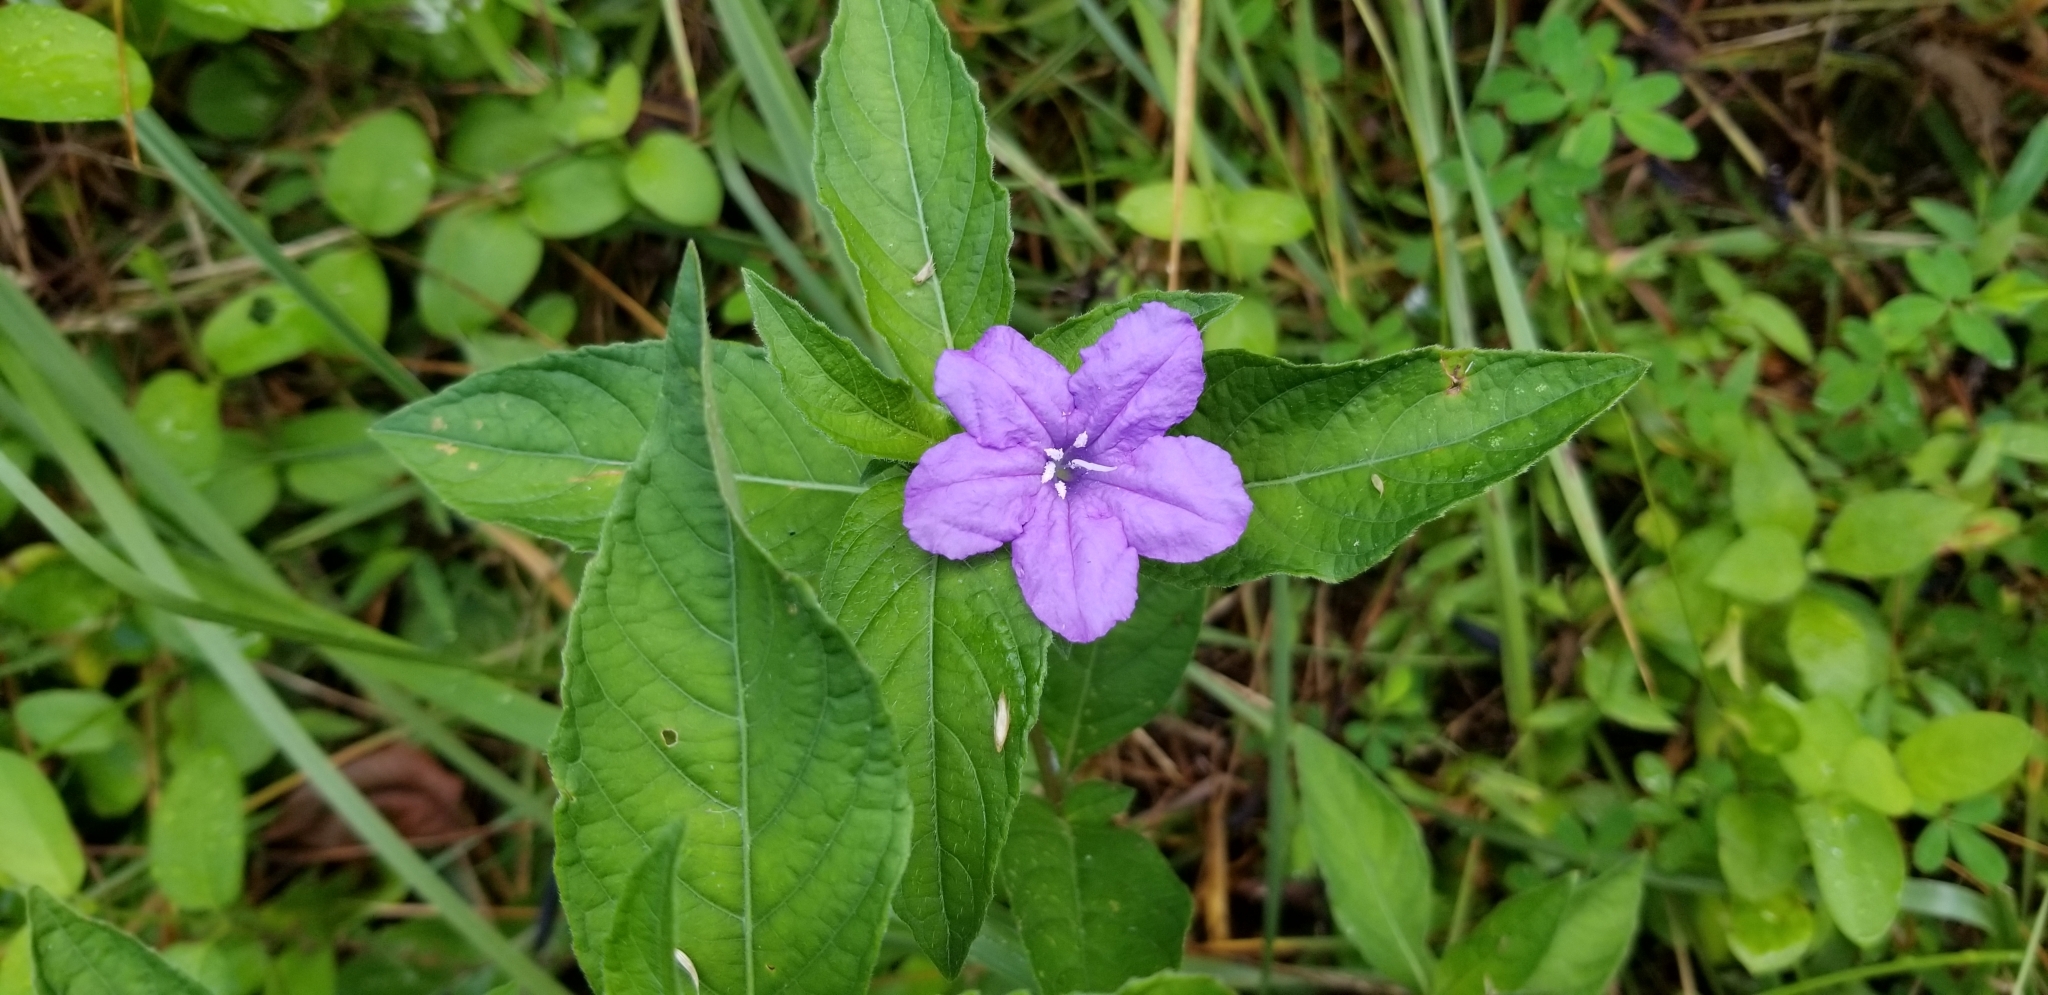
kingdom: Plantae
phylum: Tracheophyta
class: Magnoliopsida
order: Lamiales
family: Acanthaceae
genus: Ruellia
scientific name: Ruellia caroliniensis
